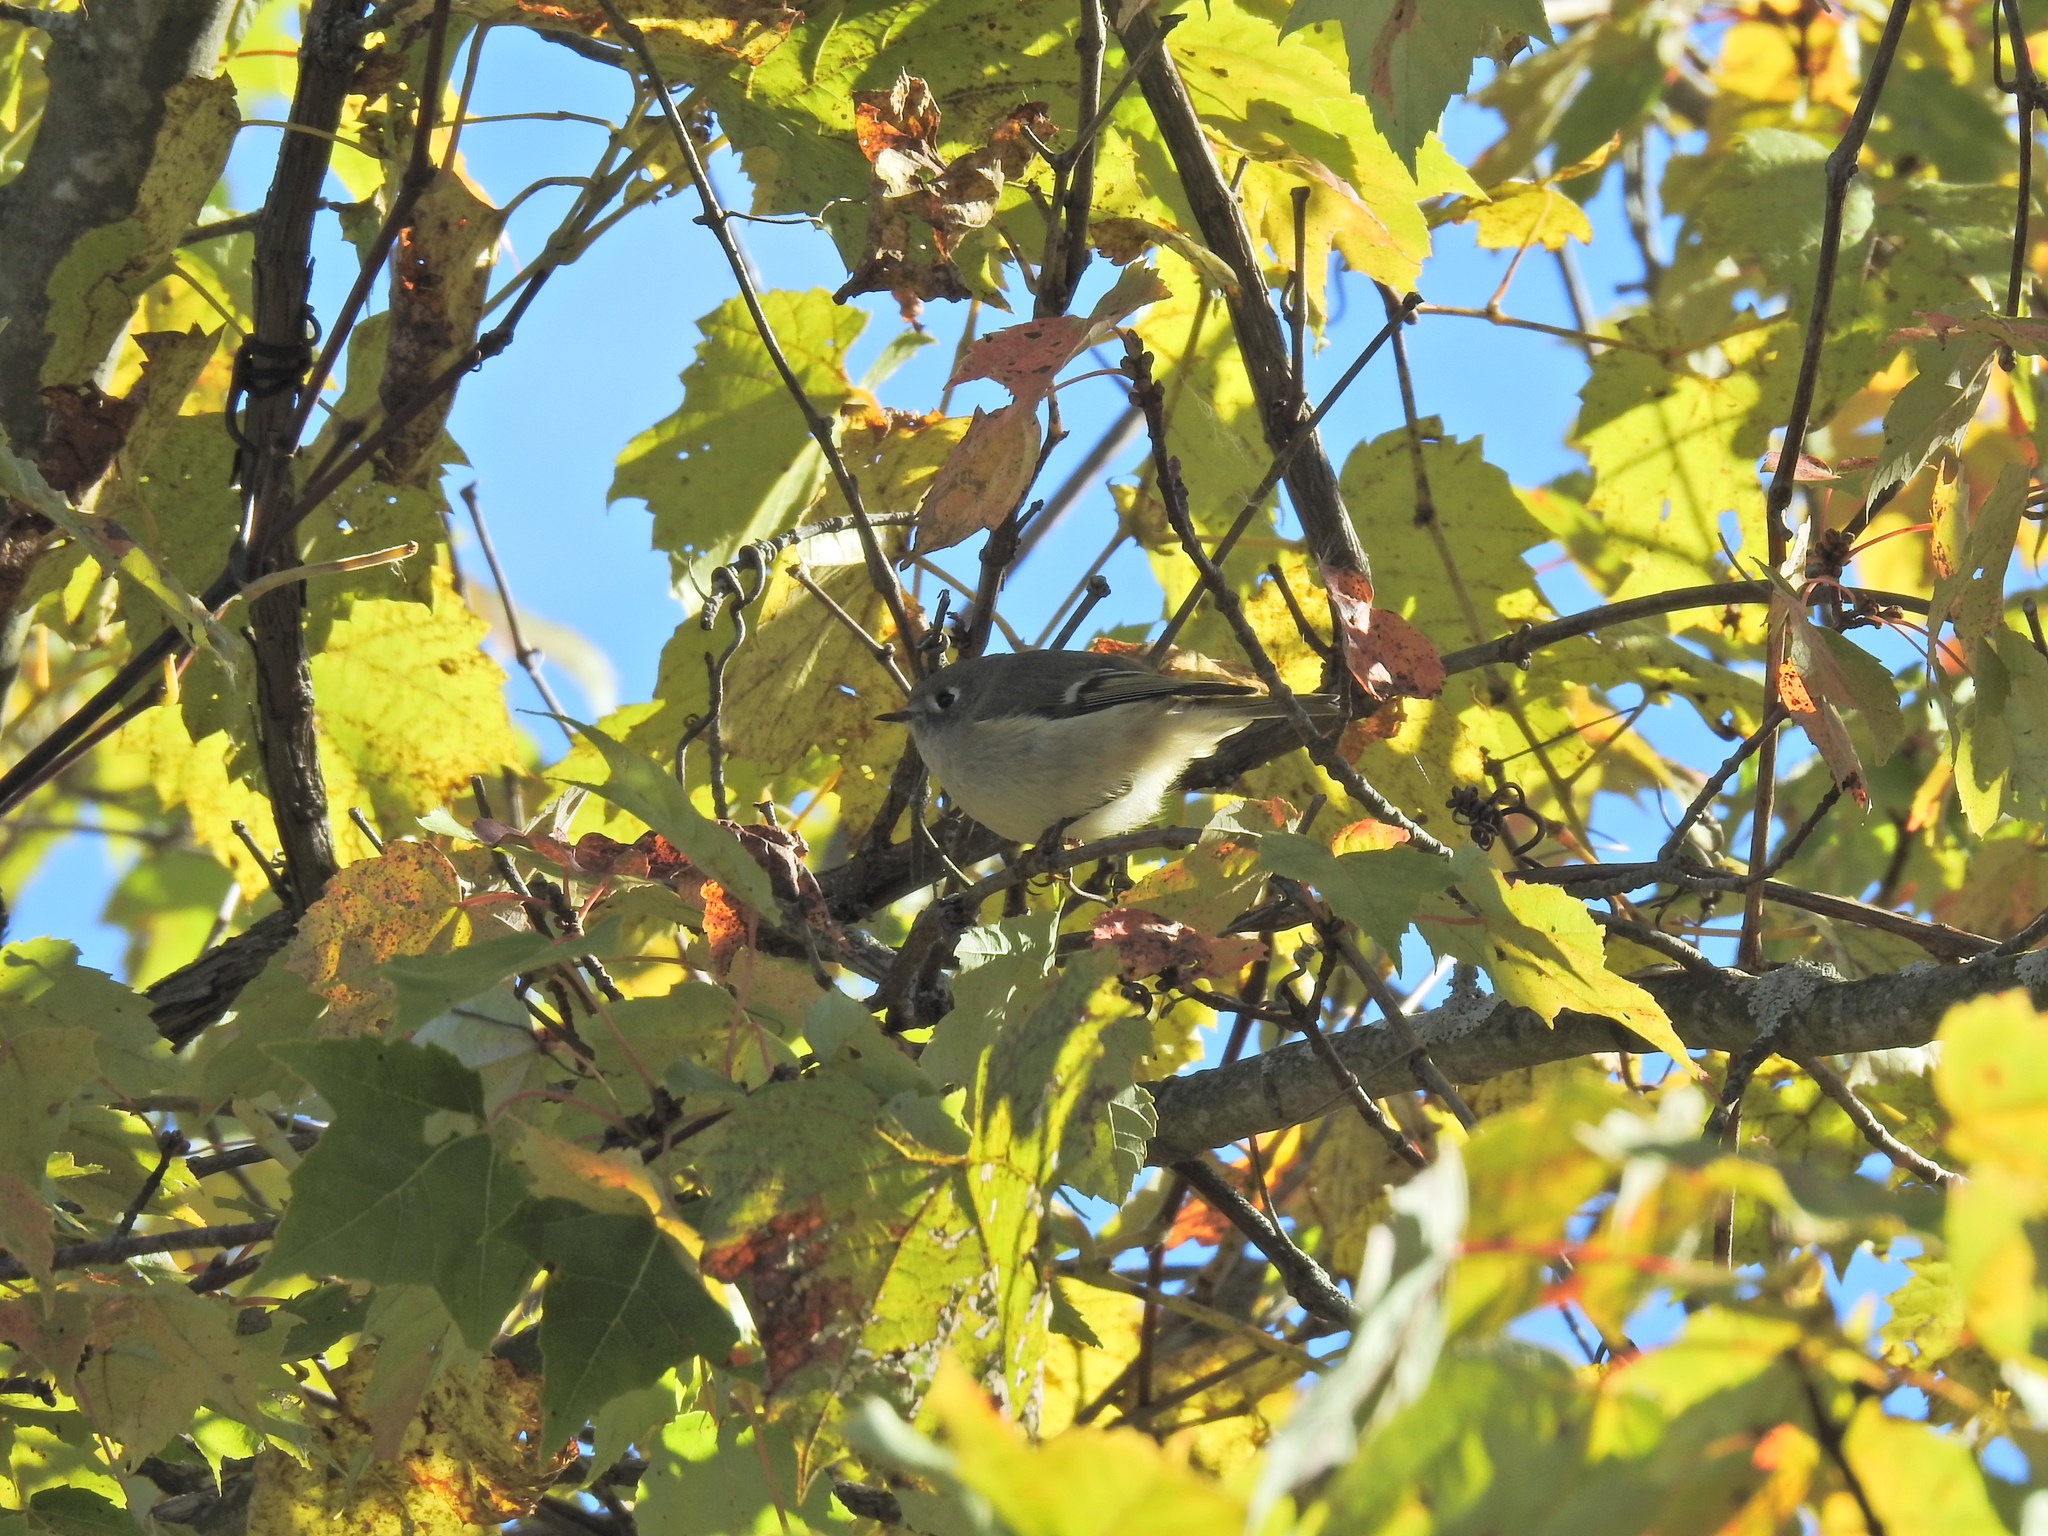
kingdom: Animalia
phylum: Chordata
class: Aves
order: Passeriformes
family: Regulidae
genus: Regulus
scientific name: Regulus calendula
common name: Ruby-crowned kinglet
